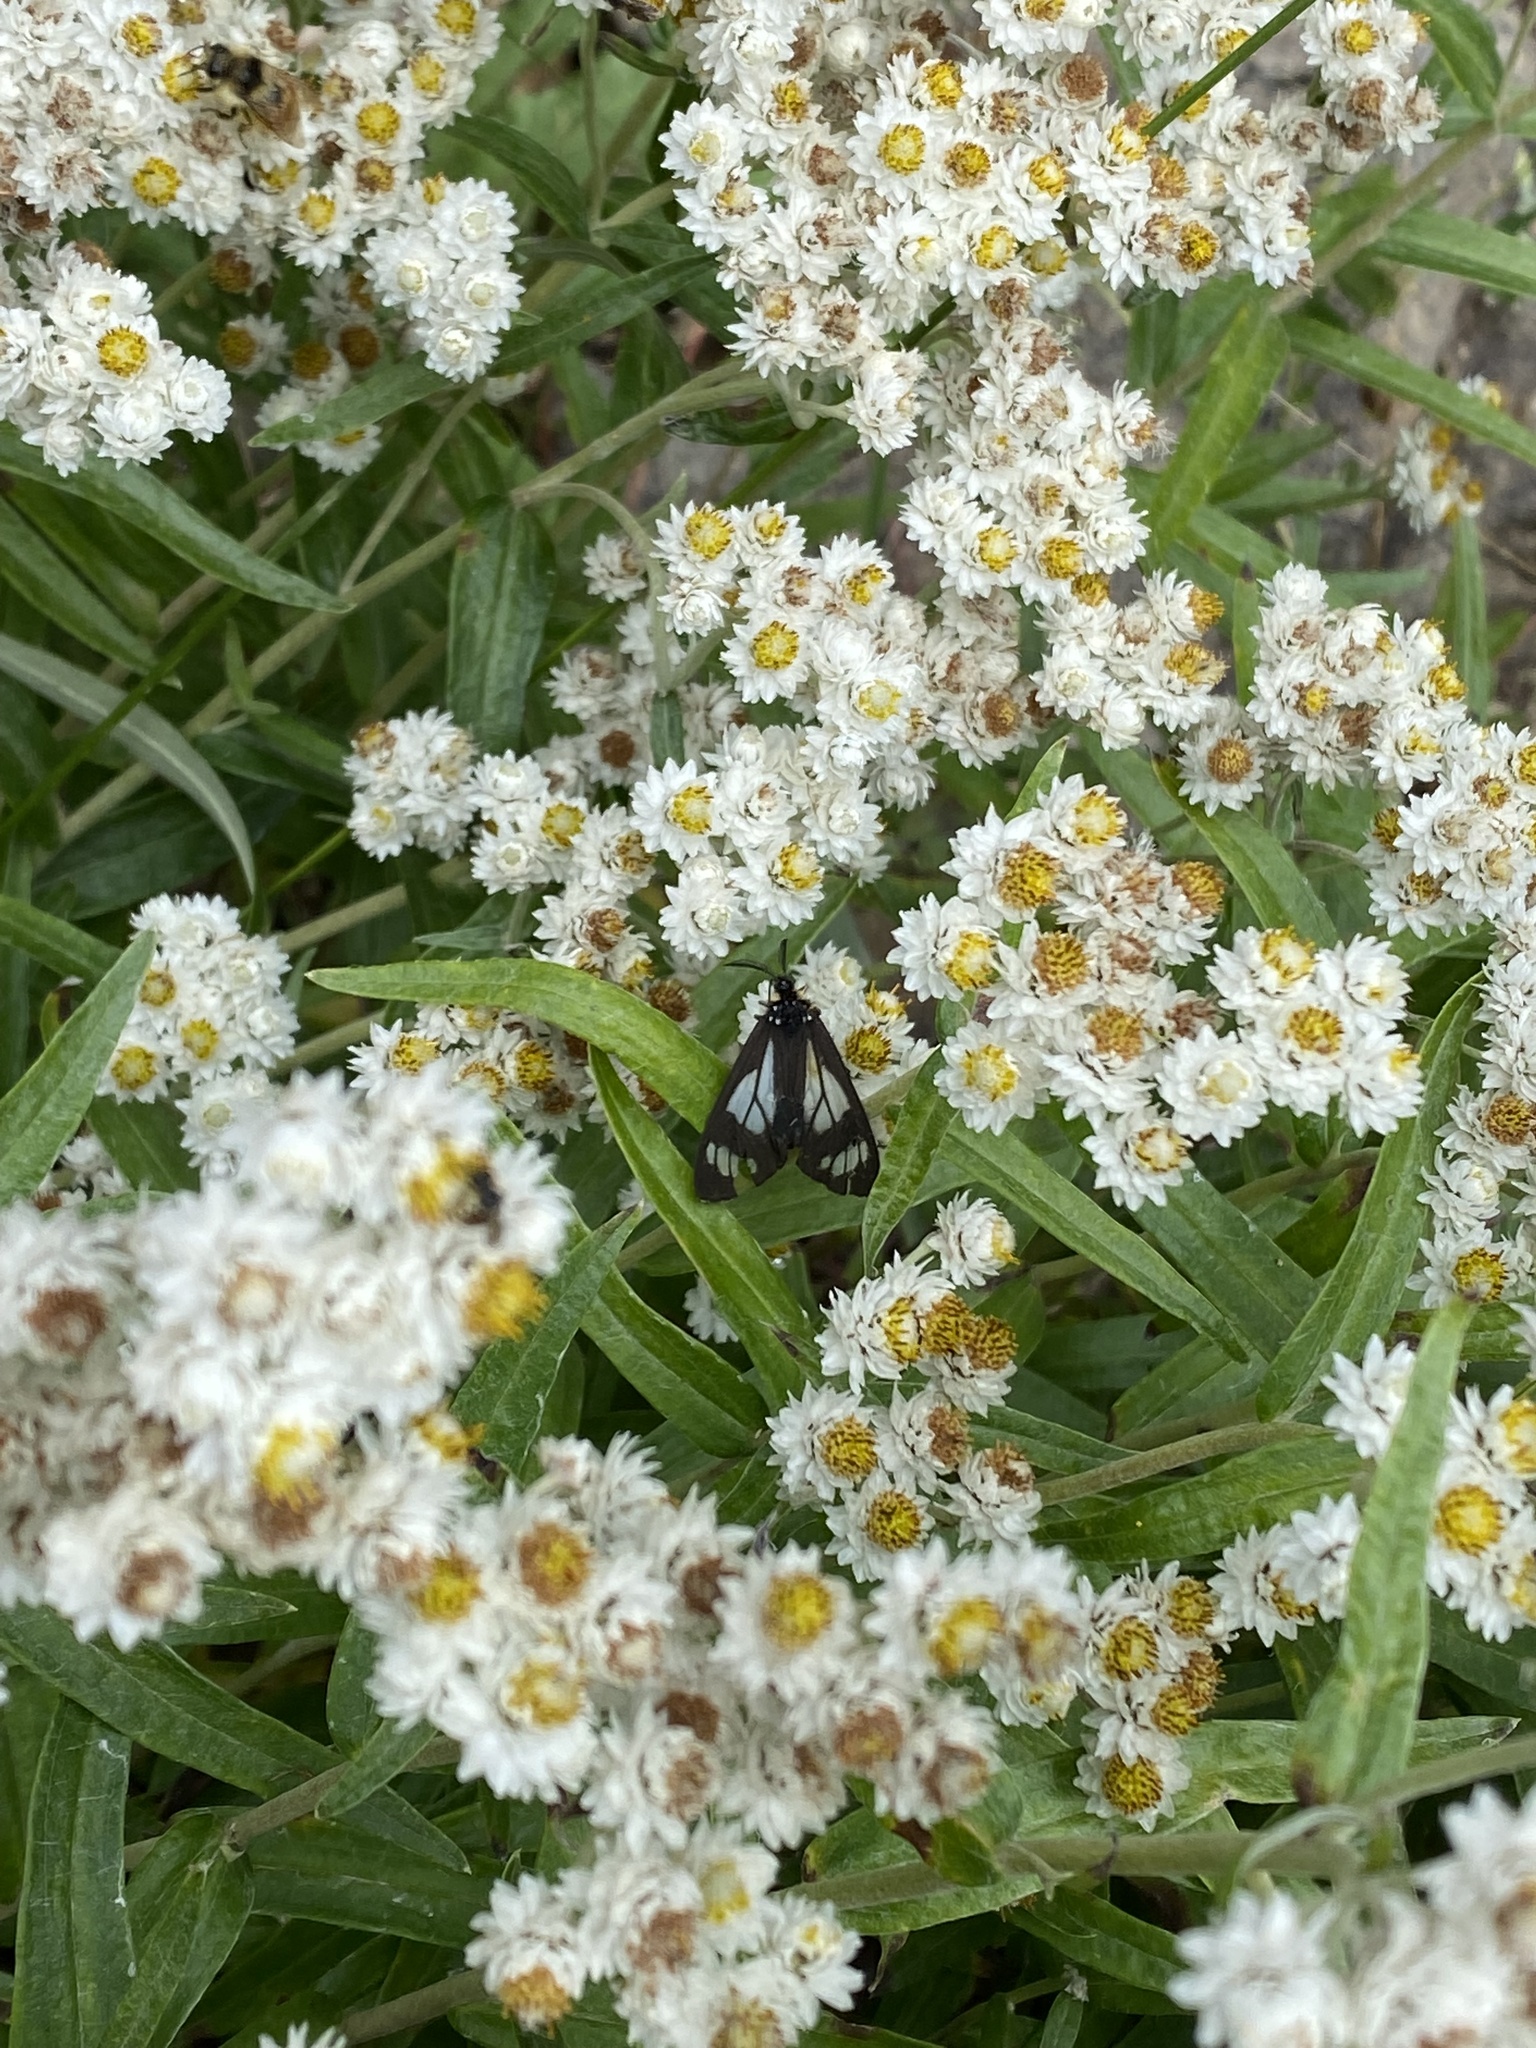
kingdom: Plantae
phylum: Tracheophyta
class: Magnoliopsida
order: Asterales
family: Asteraceae
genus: Anaphalis
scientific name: Anaphalis margaritacea
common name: Pearly everlasting
